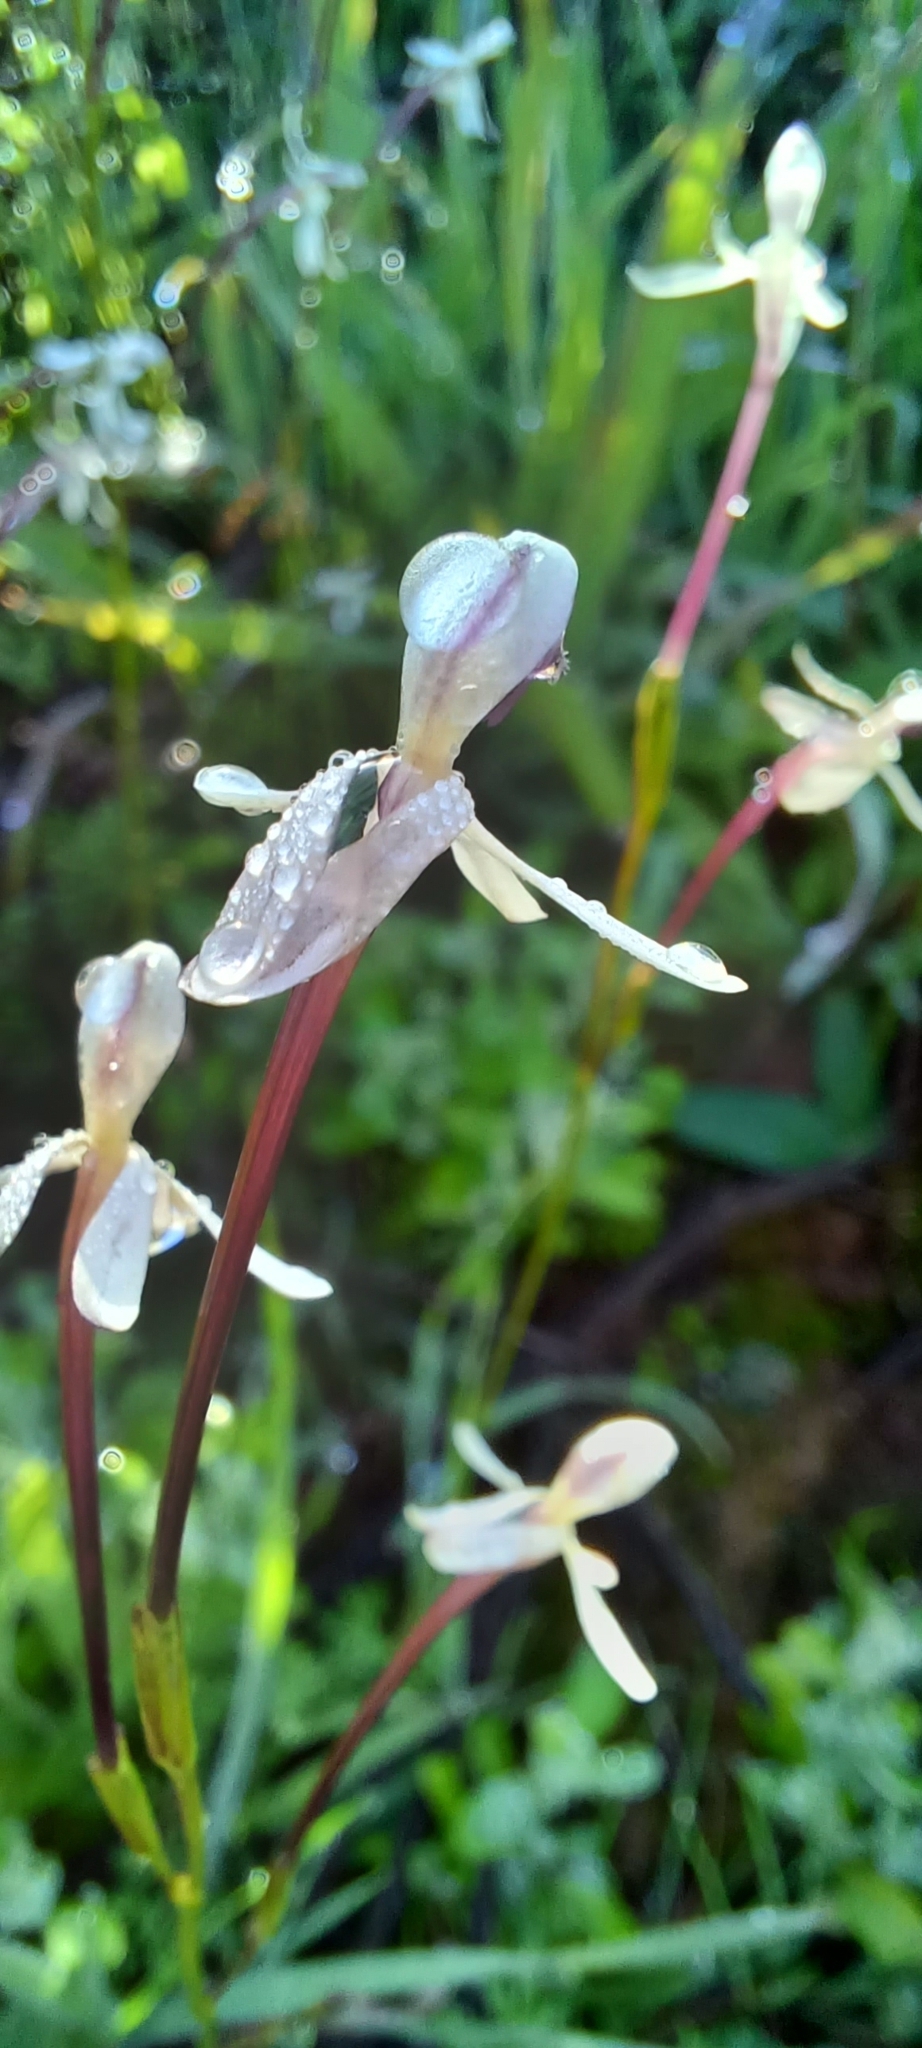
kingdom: Plantae
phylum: Tracheophyta
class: Liliopsida
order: Asparagales
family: Iridaceae
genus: Xenoscapa
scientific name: Xenoscapa fistulosa
